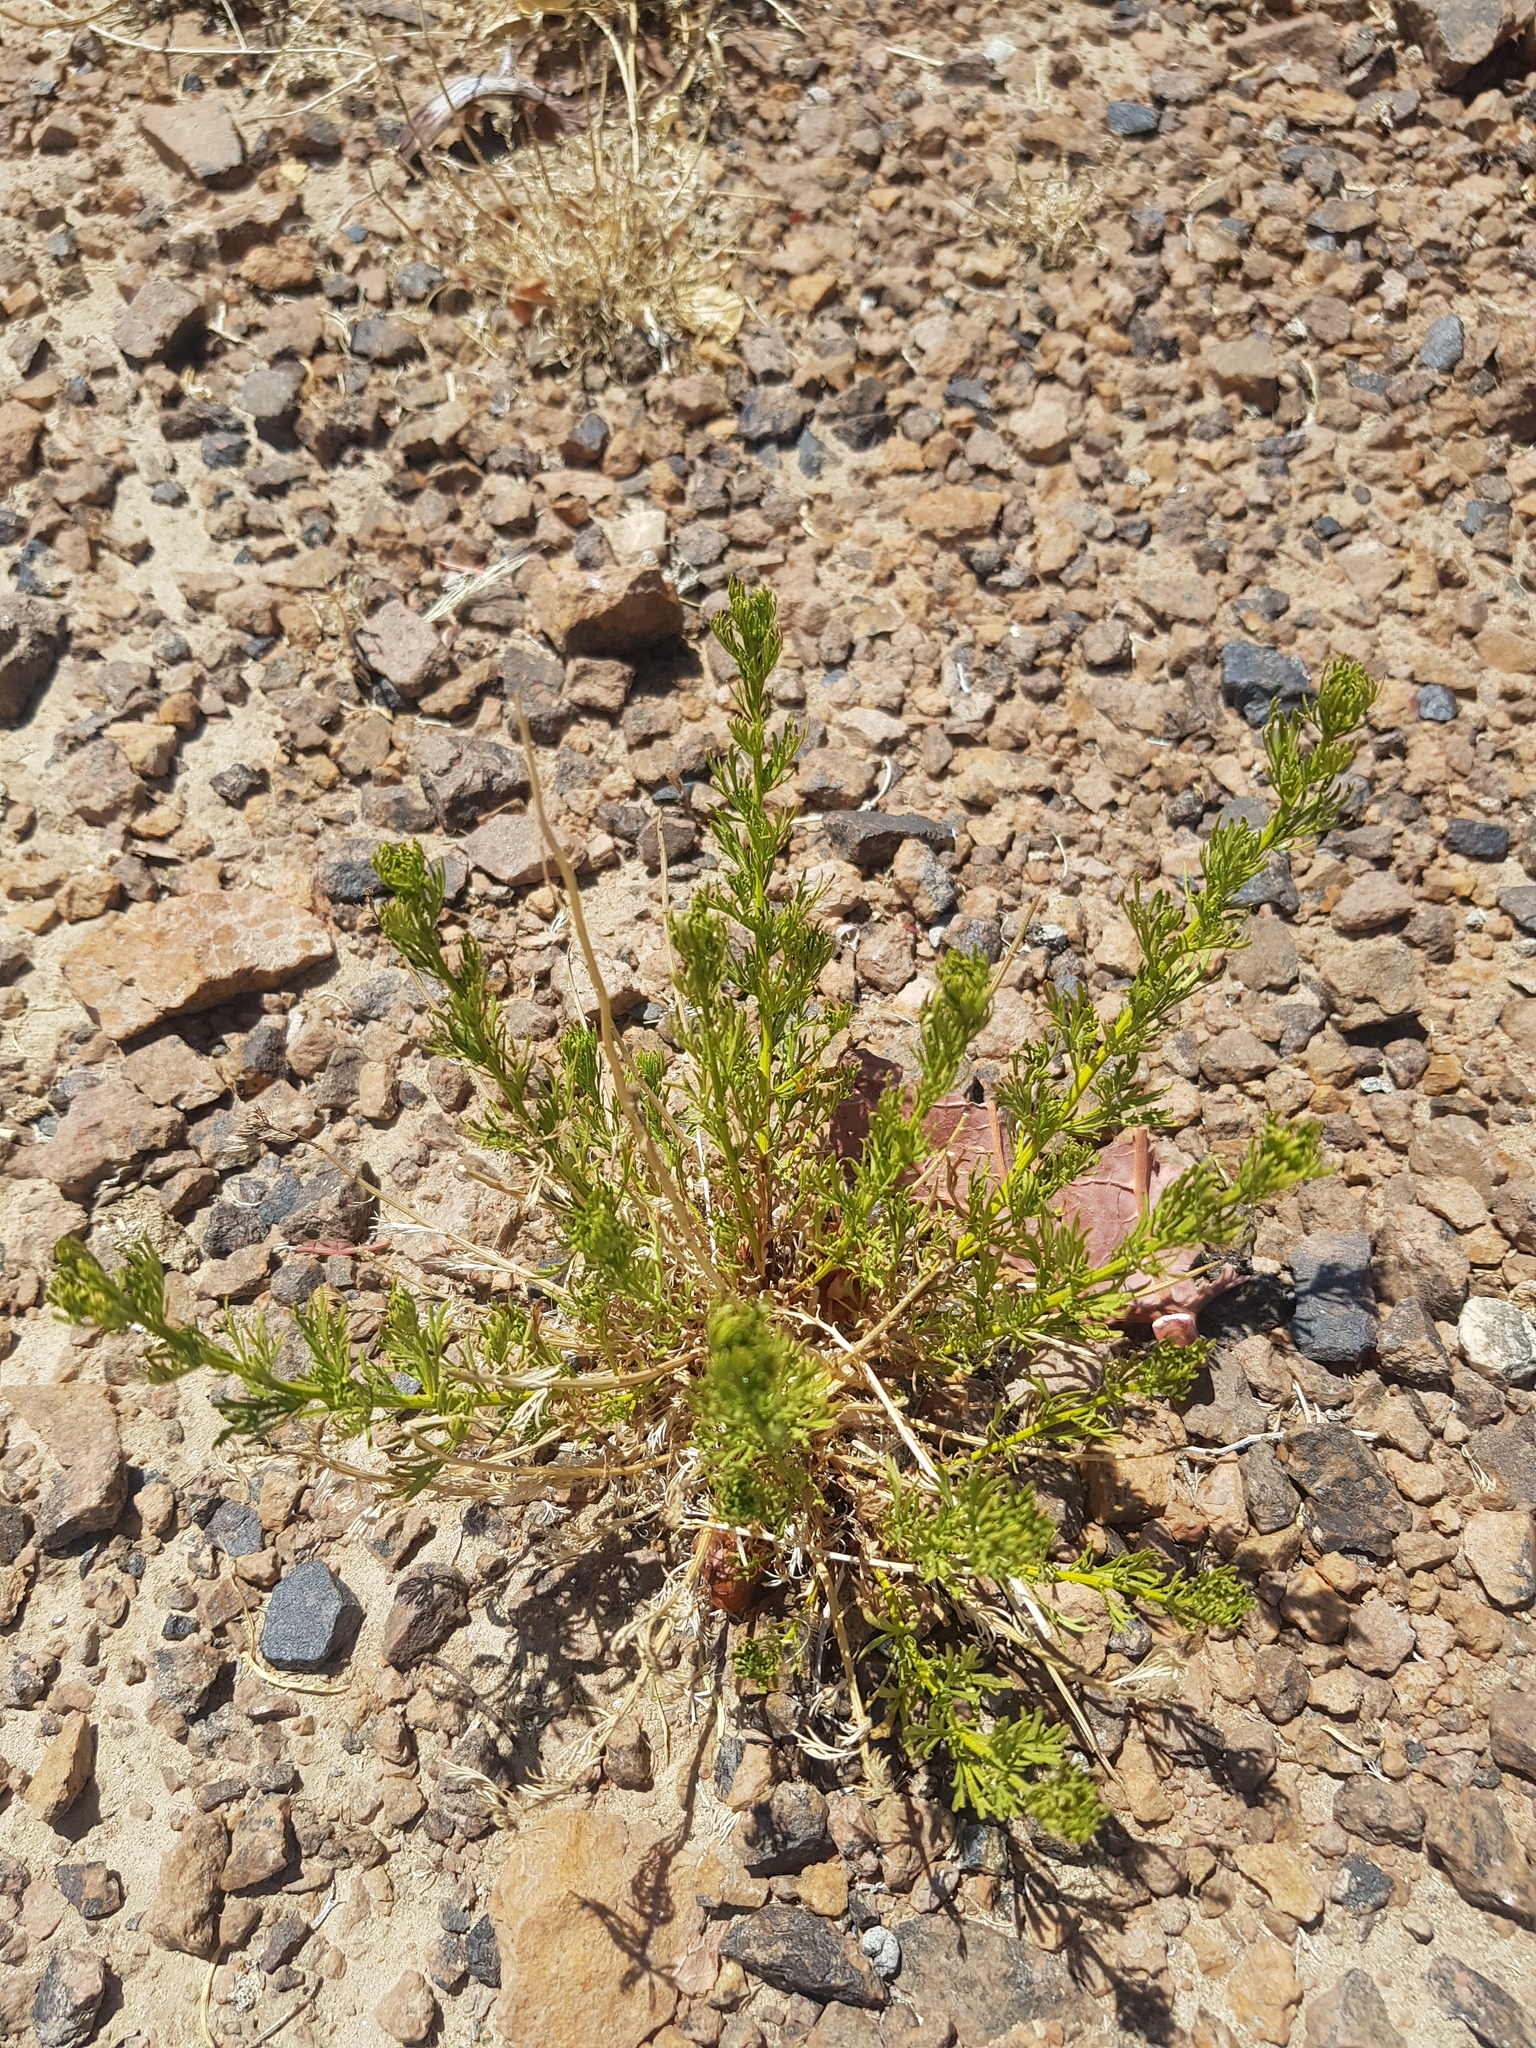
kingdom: Plantae
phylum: Tracheophyta
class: Magnoliopsida
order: Asterales
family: Asteraceae
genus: Ajania
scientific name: Ajania fruticulosa
